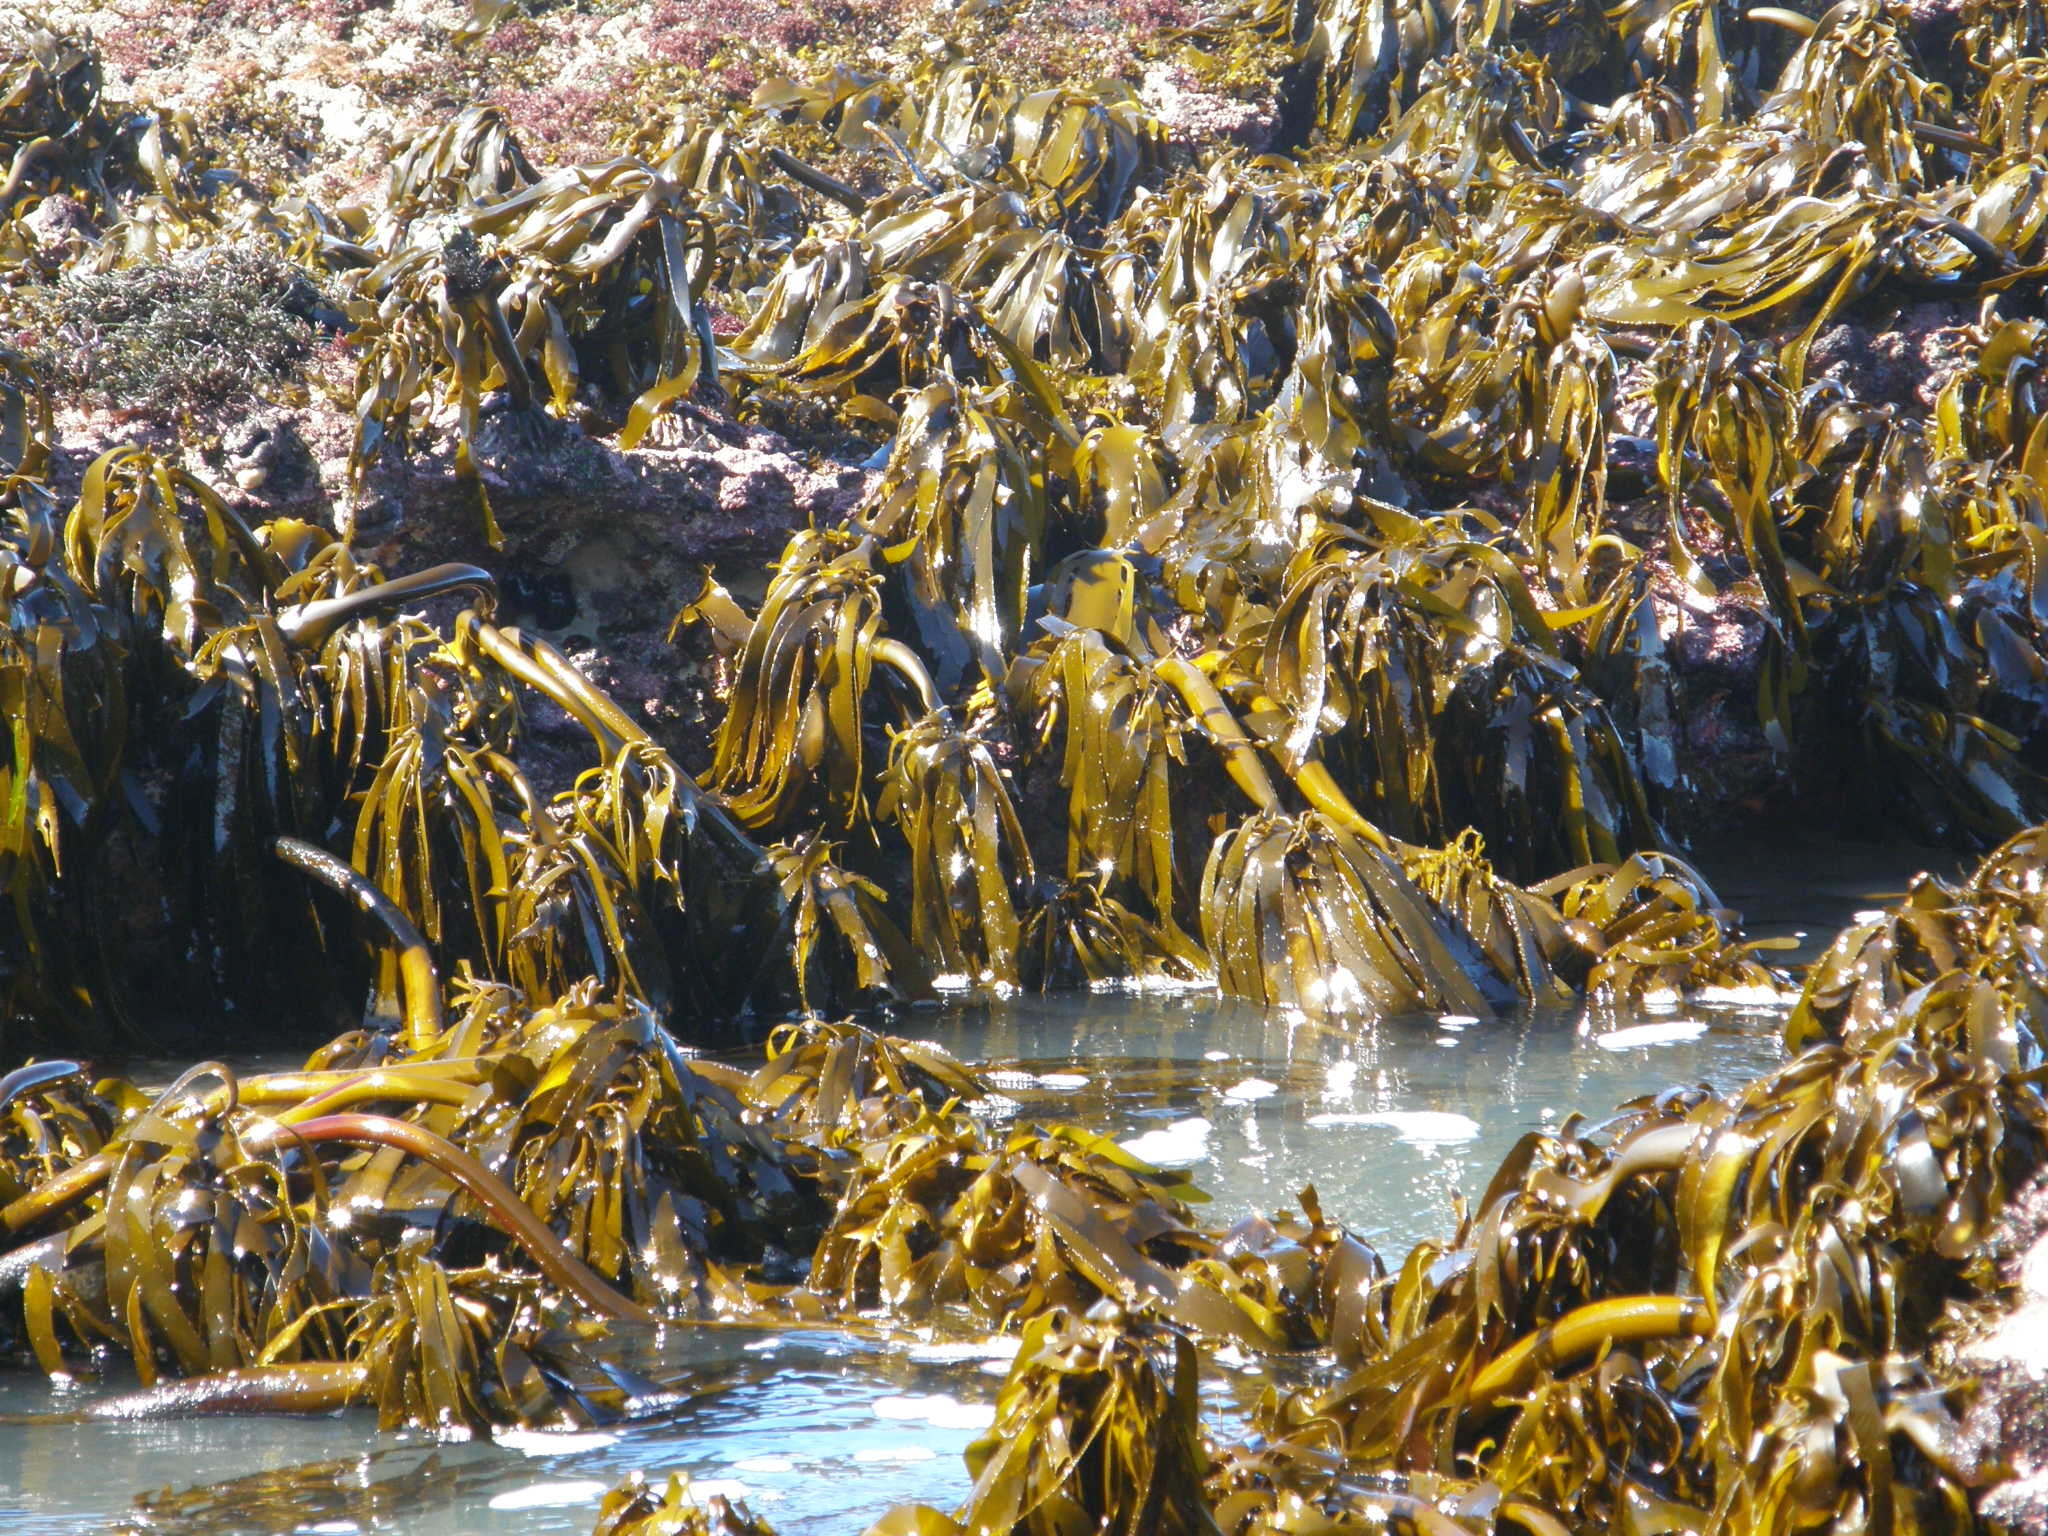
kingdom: Chromista
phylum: Ochrophyta
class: Phaeophyceae
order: Laminariales
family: Lessoniaceae
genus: Ecklonia
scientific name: Ecklonia
